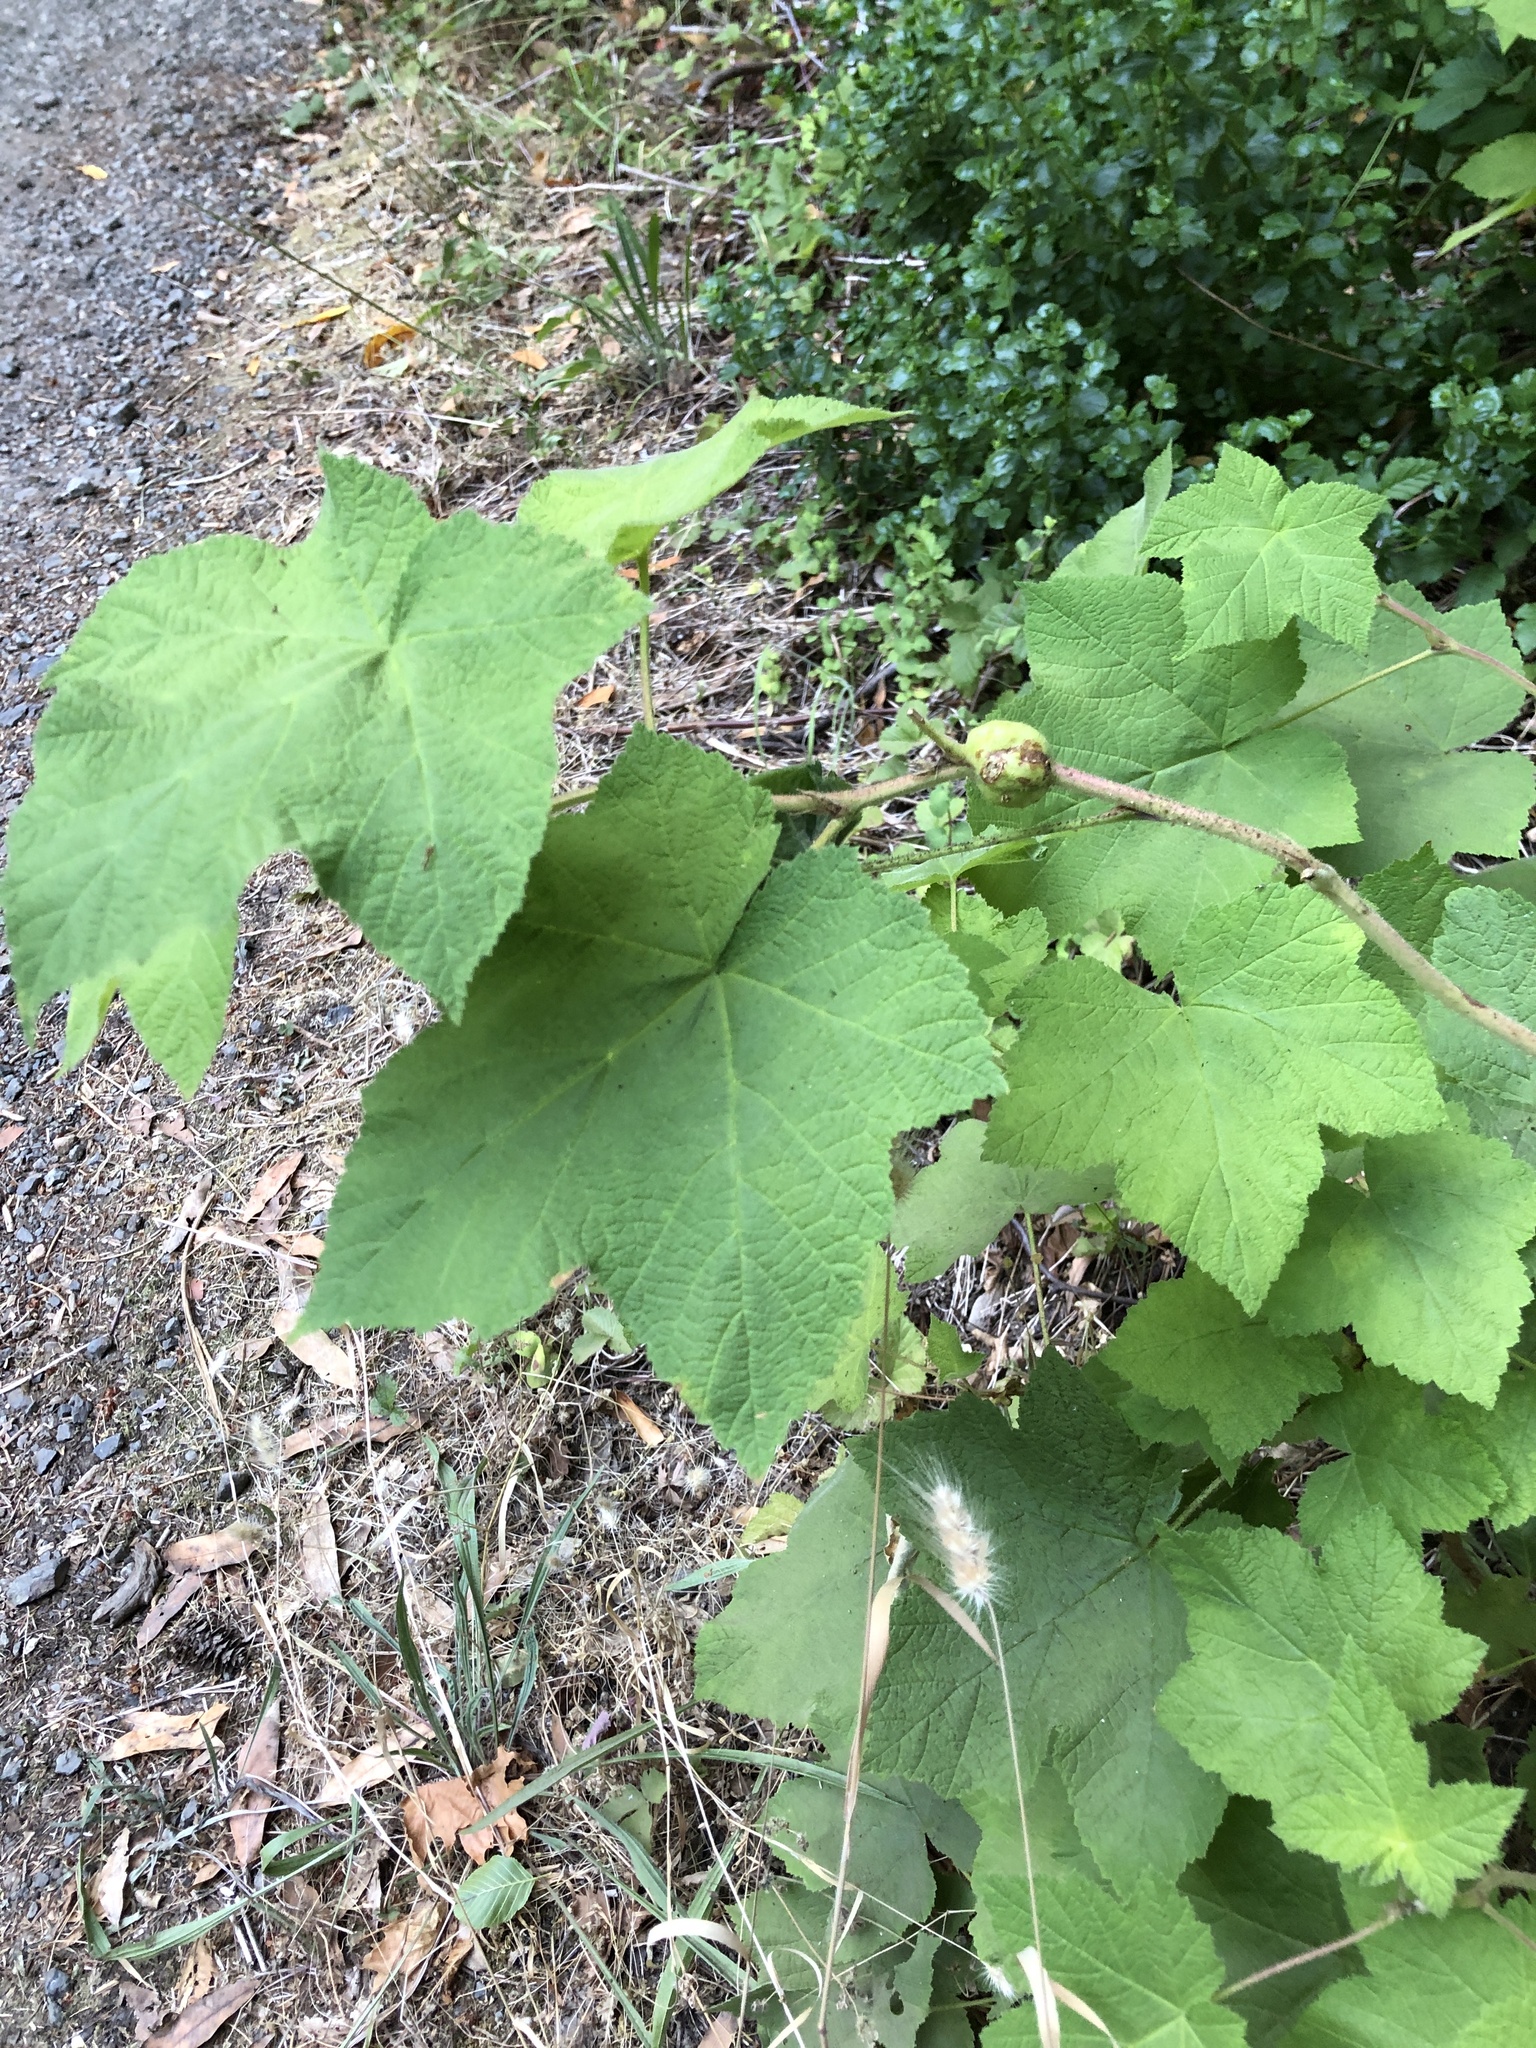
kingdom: Animalia
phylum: Arthropoda
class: Insecta
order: Hymenoptera
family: Cynipidae
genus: Diastrophus
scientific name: Diastrophus
